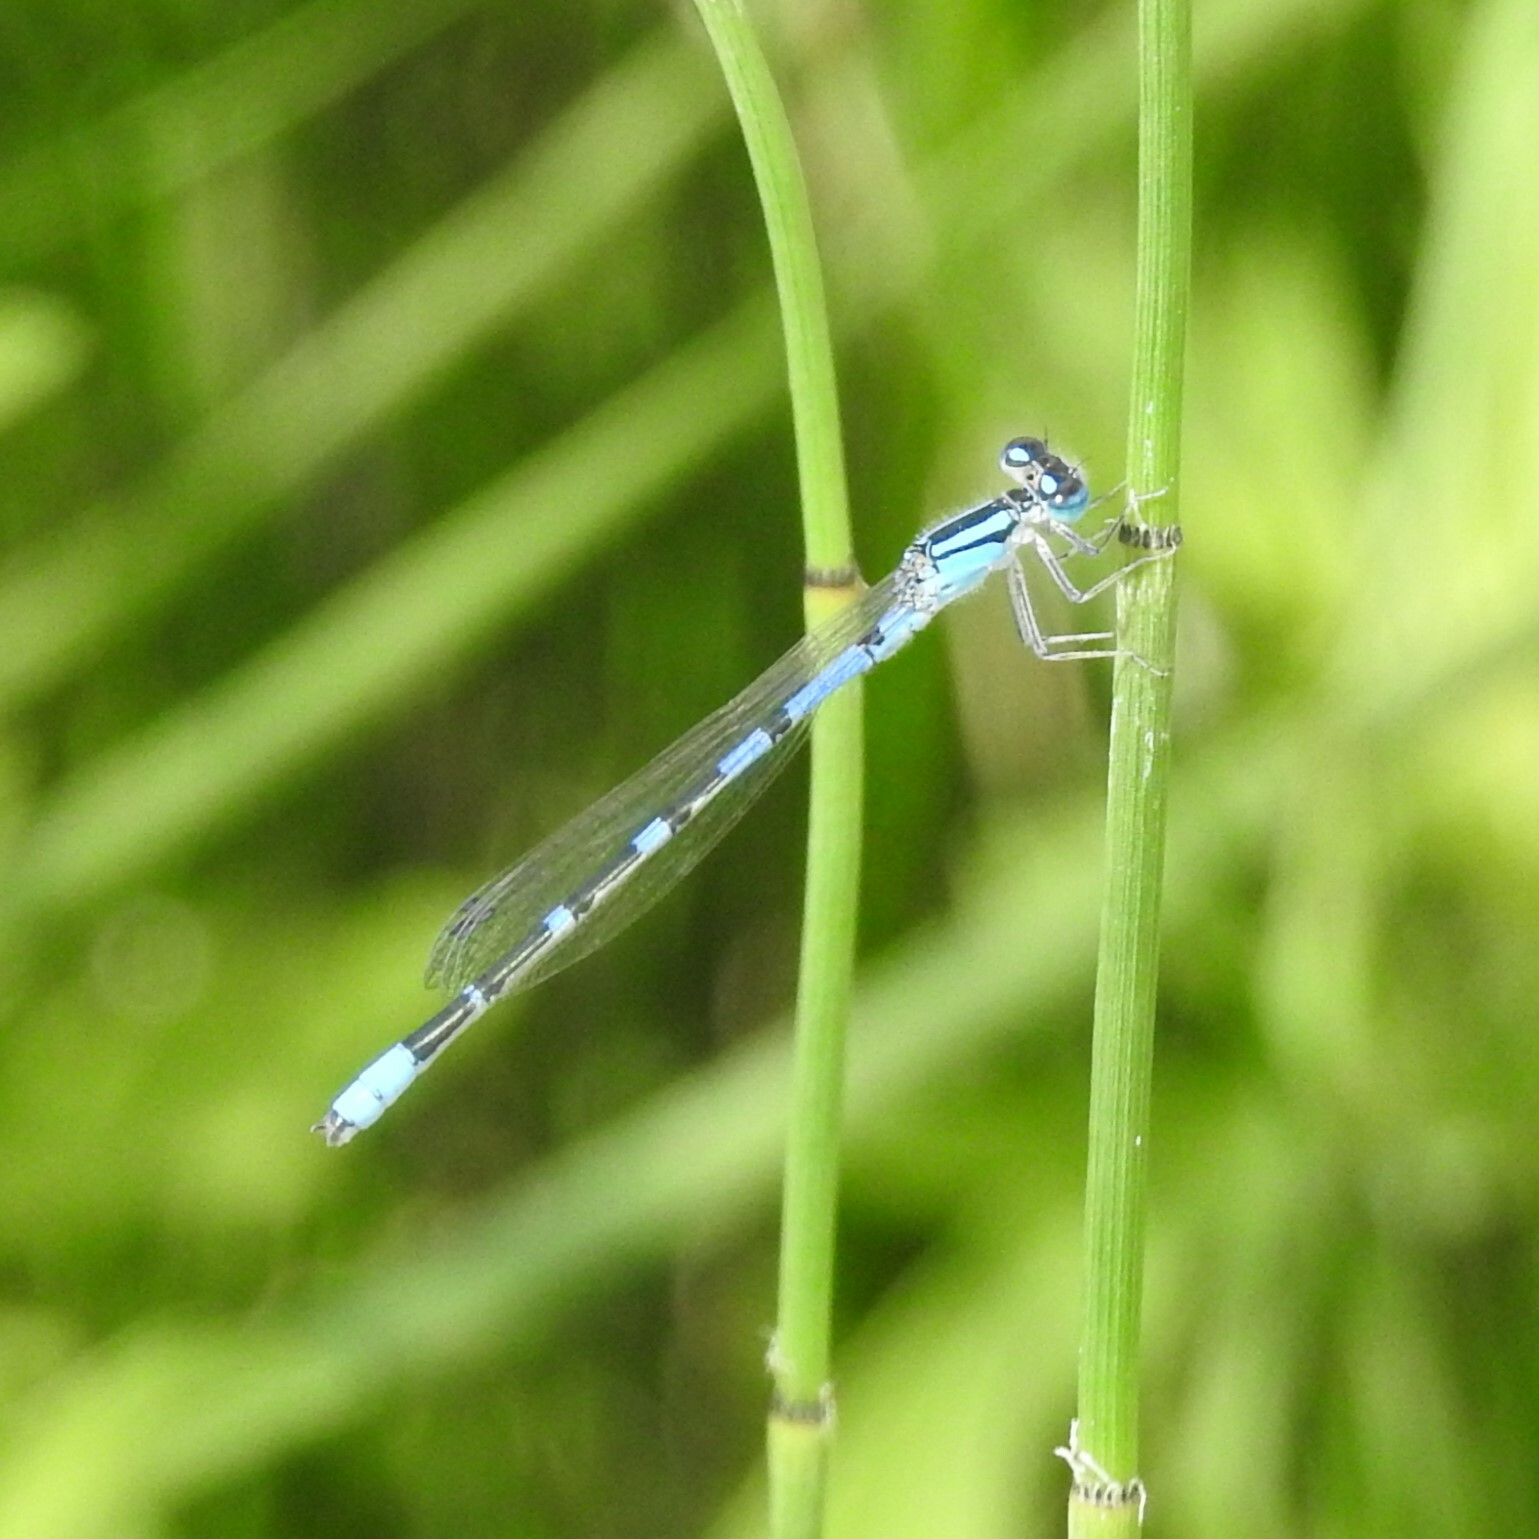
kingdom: Animalia
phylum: Arthropoda
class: Insecta
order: Odonata
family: Coenagrionidae
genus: Enallagma
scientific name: Enallagma praevarum
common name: Arroyo bluet
